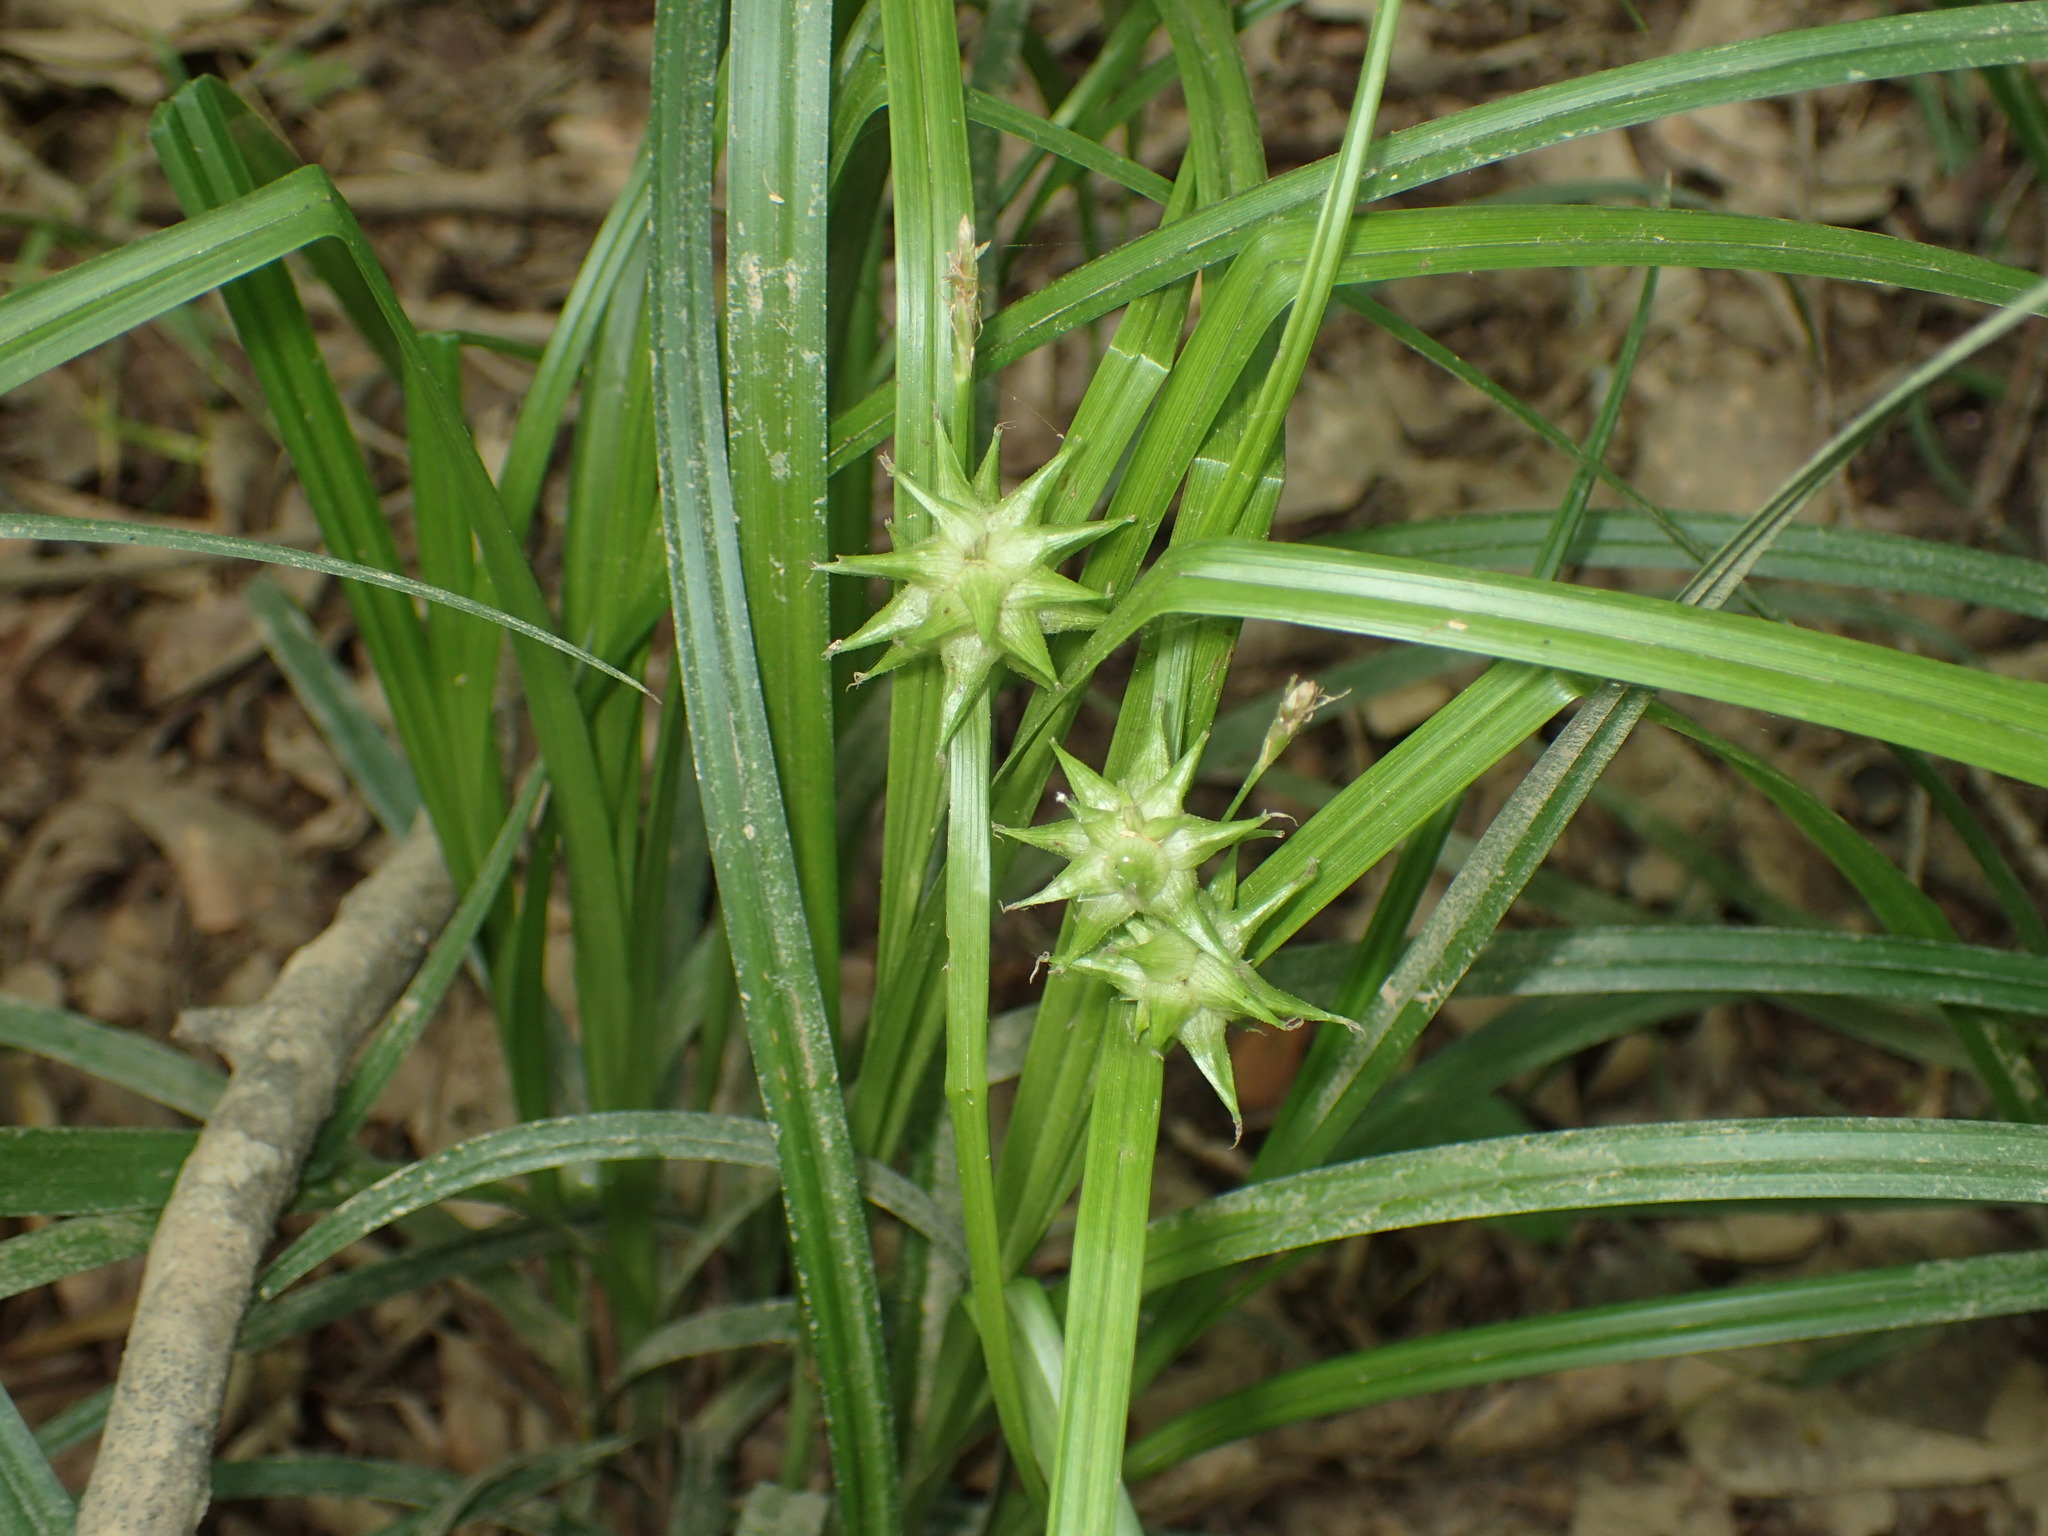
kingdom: Plantae
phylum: Tracheophyta
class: Liliopsida
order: Poales
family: Cyperaceae
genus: Carex
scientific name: Carex grayi
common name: Asa gray's sedge
